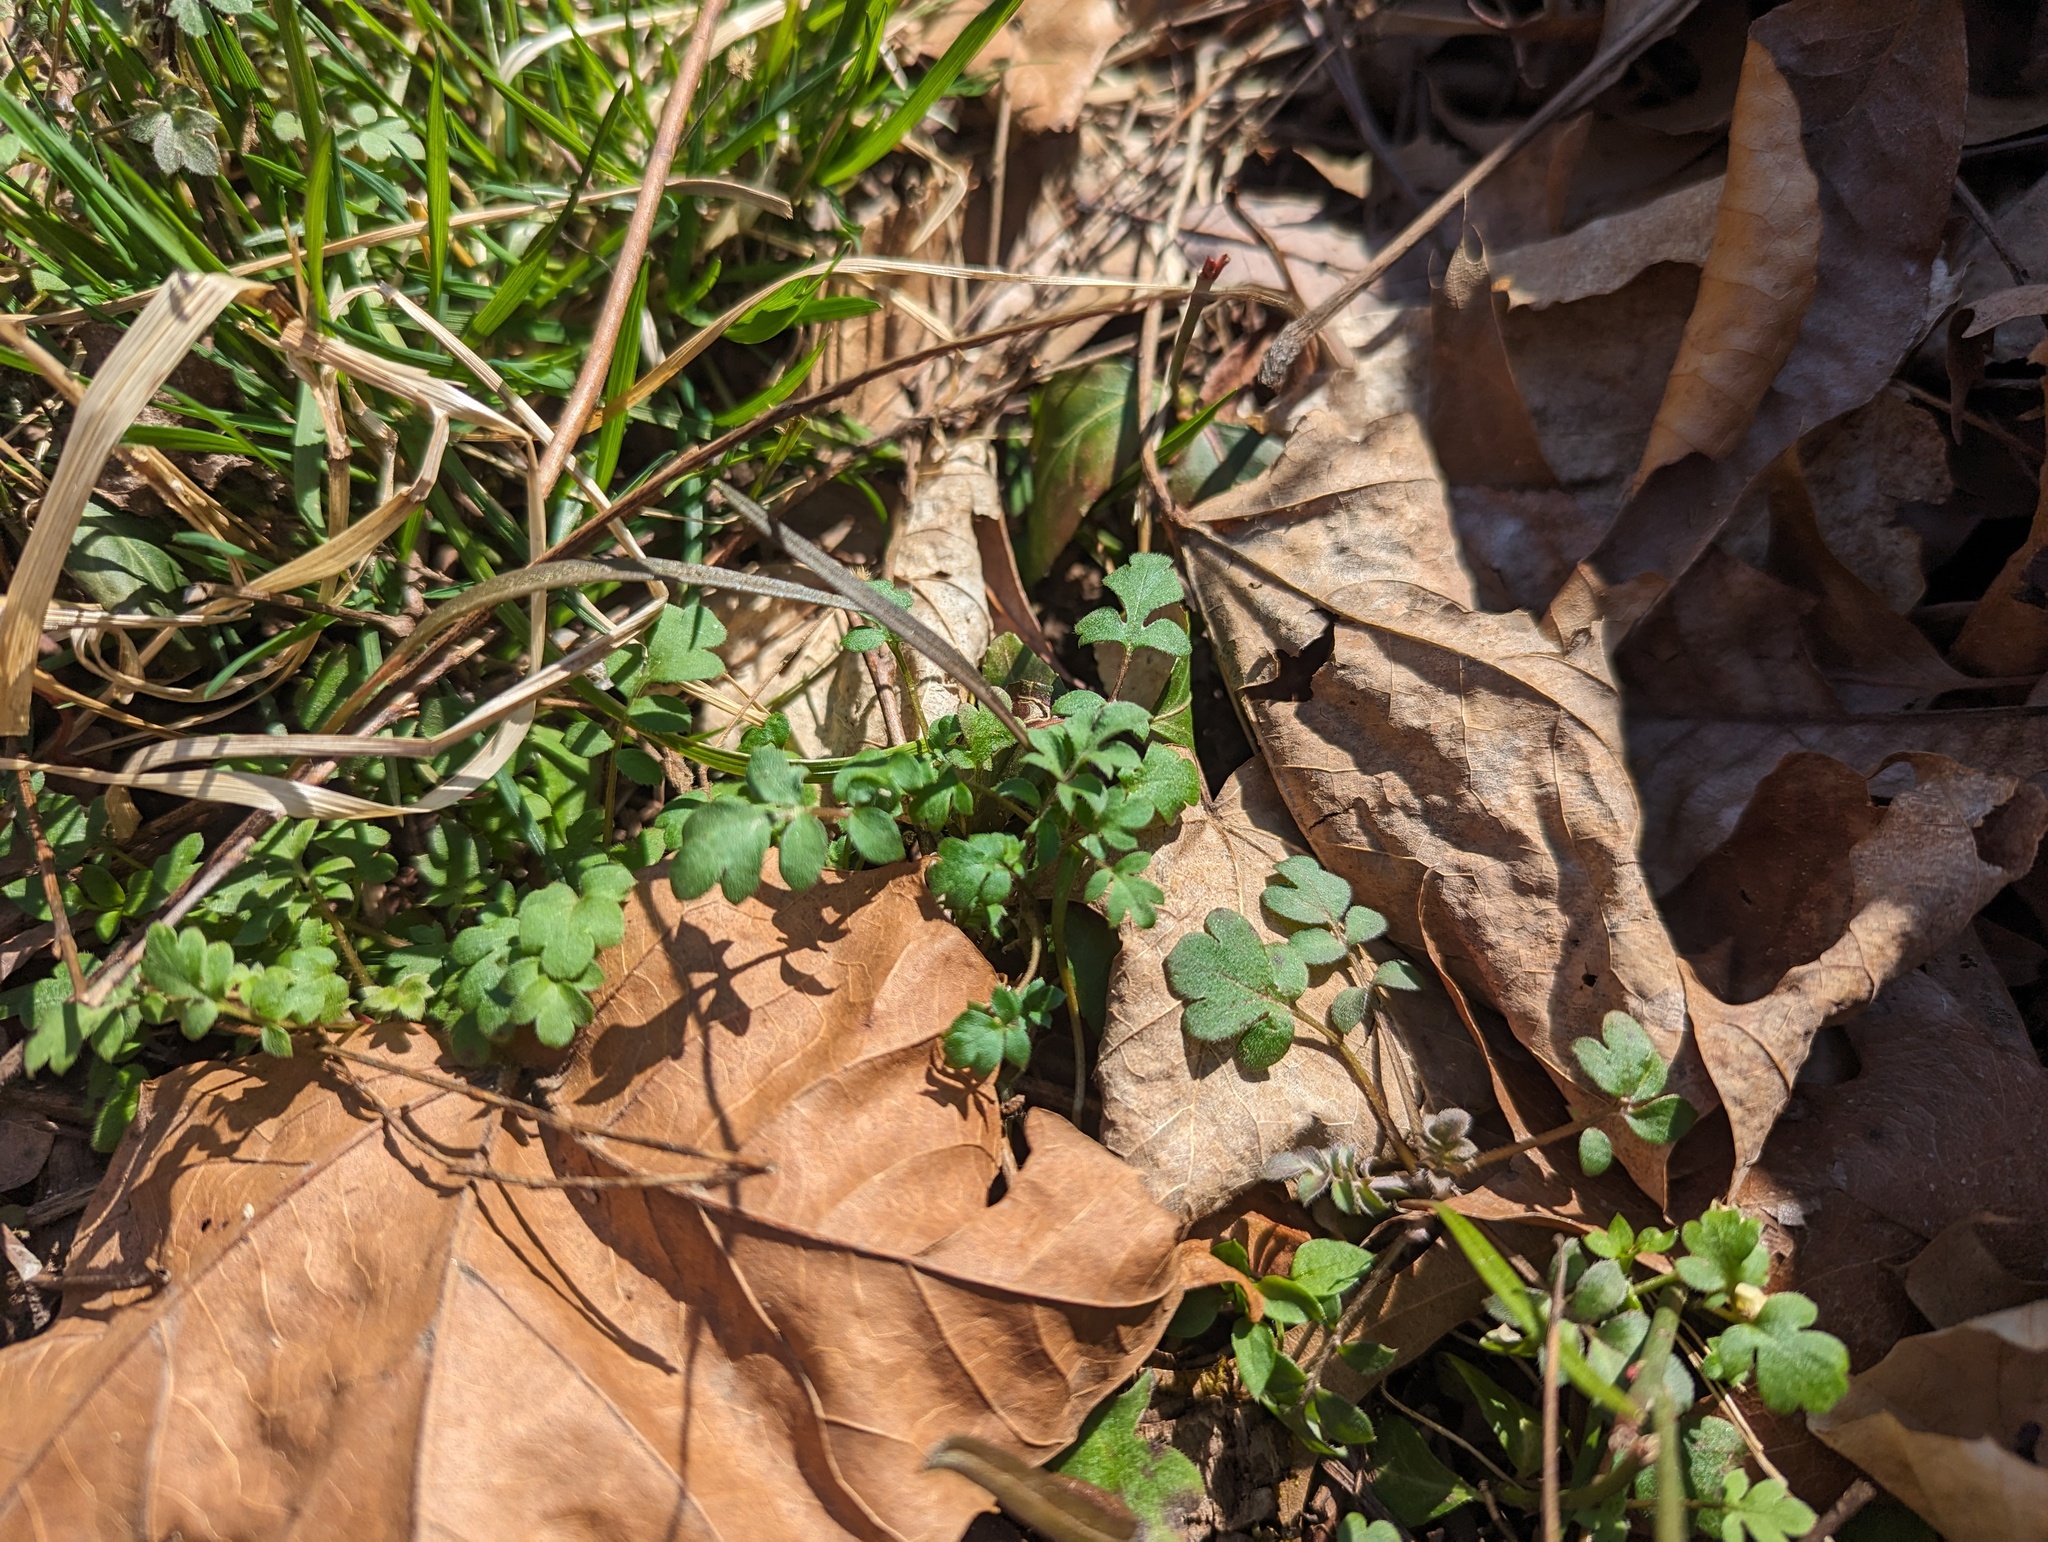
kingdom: Plantae
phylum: Tracheophyta
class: Magnoliopsida
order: Boraginales
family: Hydrophyllaceae
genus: Phacelia
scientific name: Phacelia purshii
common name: Miami-mist
